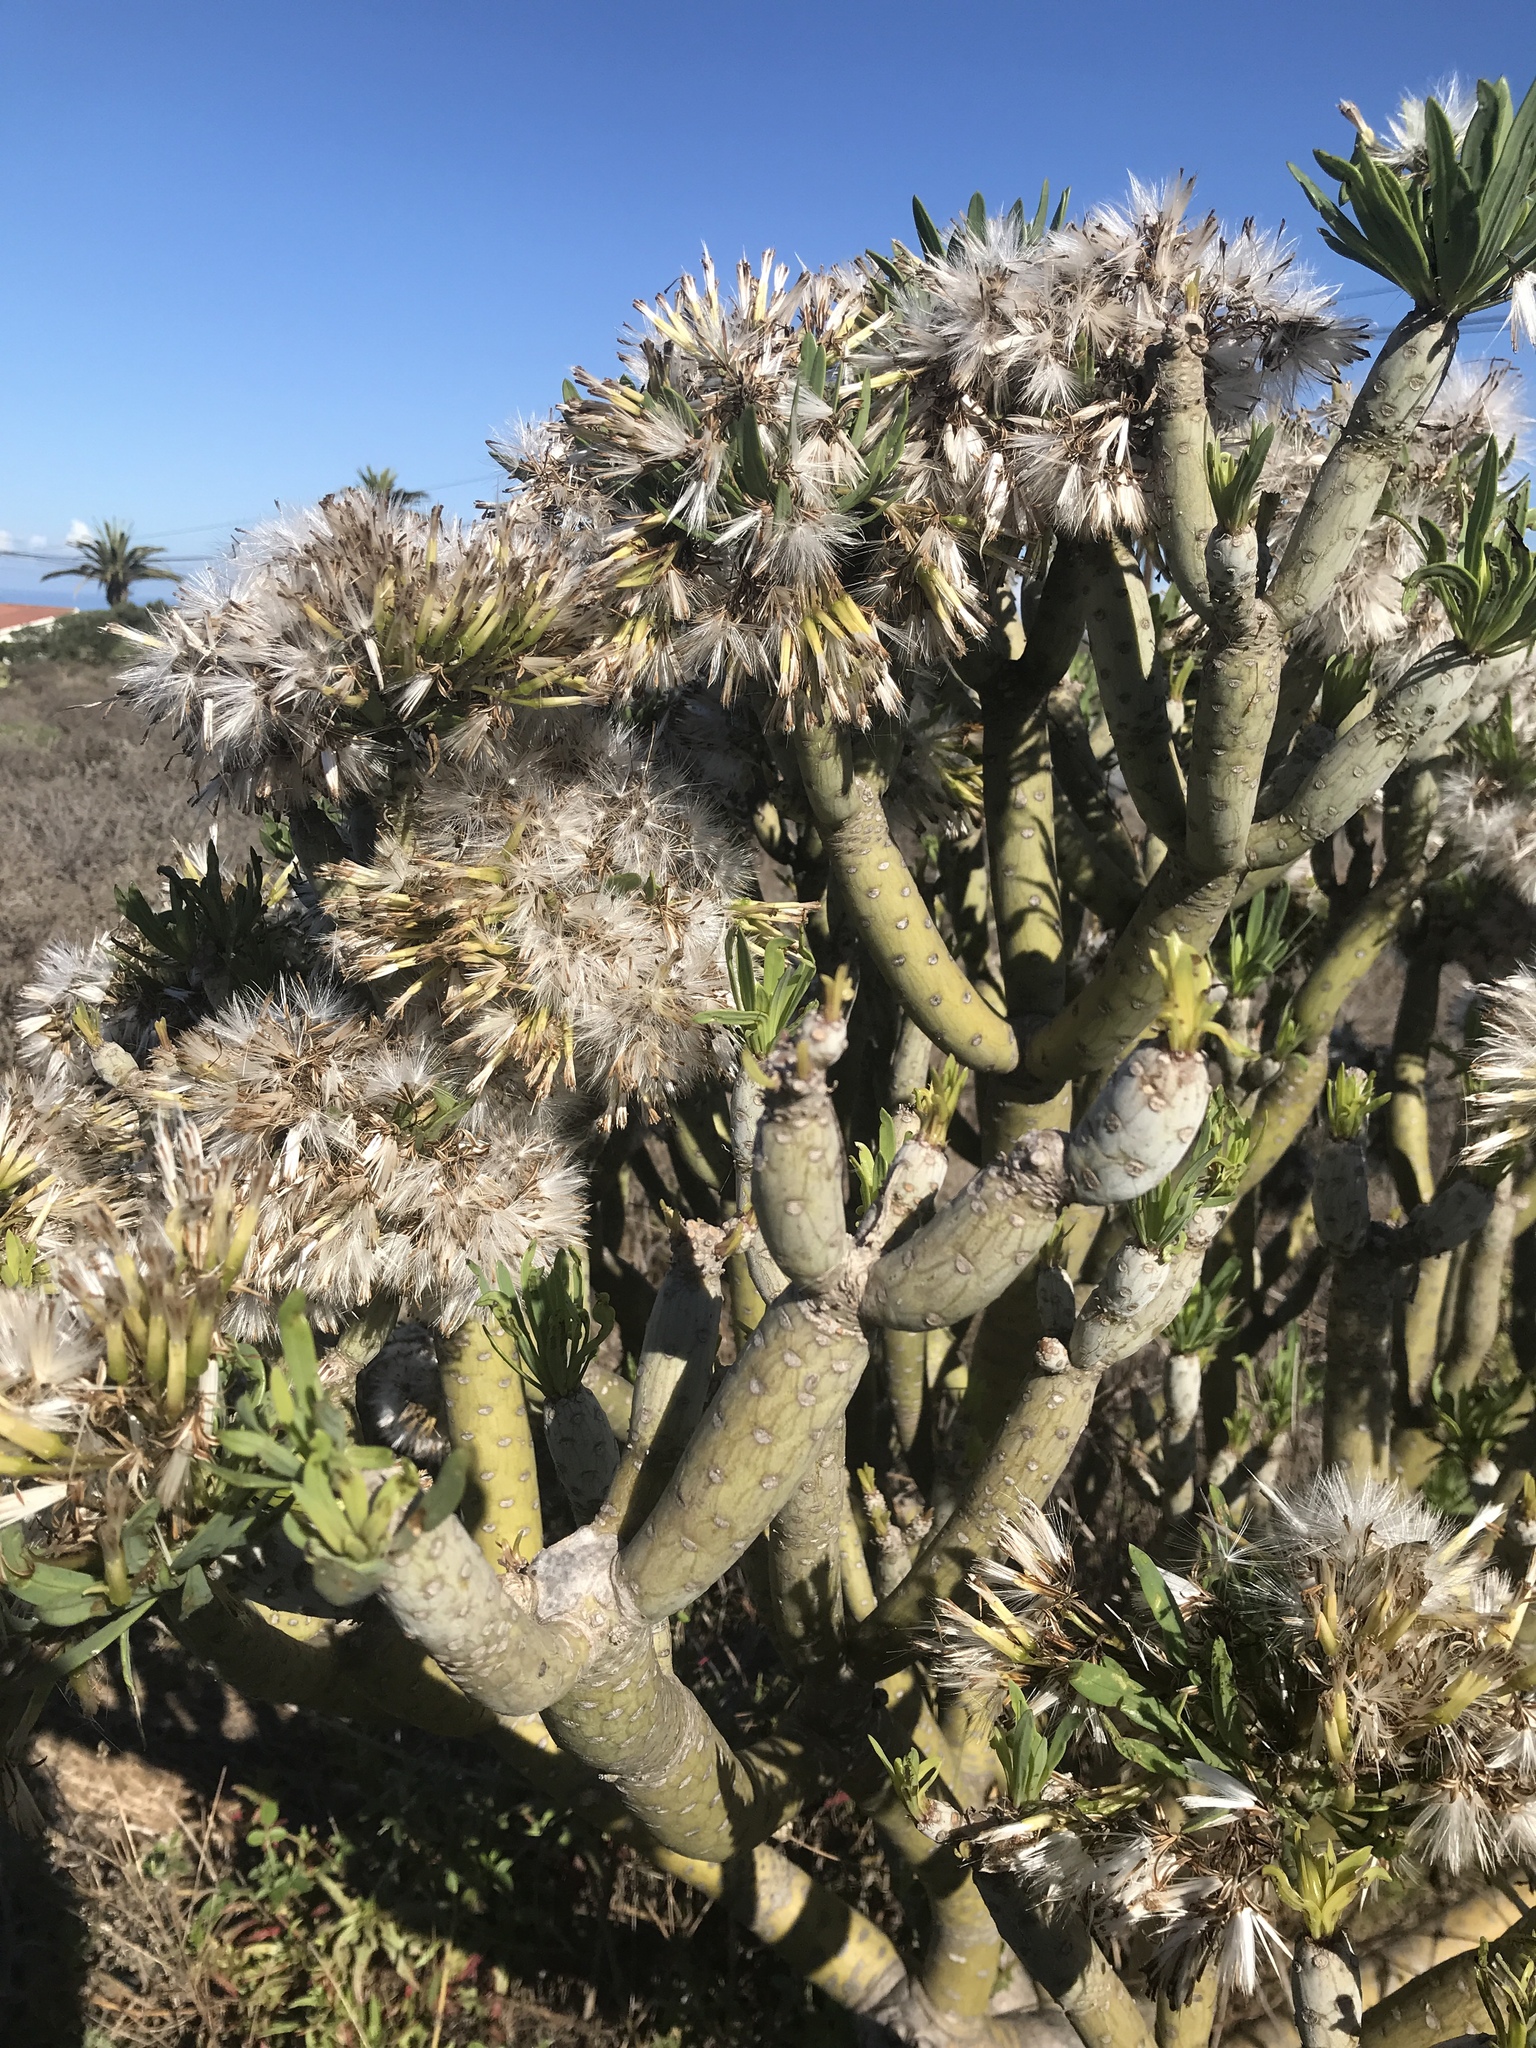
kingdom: Plantae
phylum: Tracheophyta
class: Magnoliopsida
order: Asterales
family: Asteraceae
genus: Kleinia
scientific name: Kleinia neriifolia
